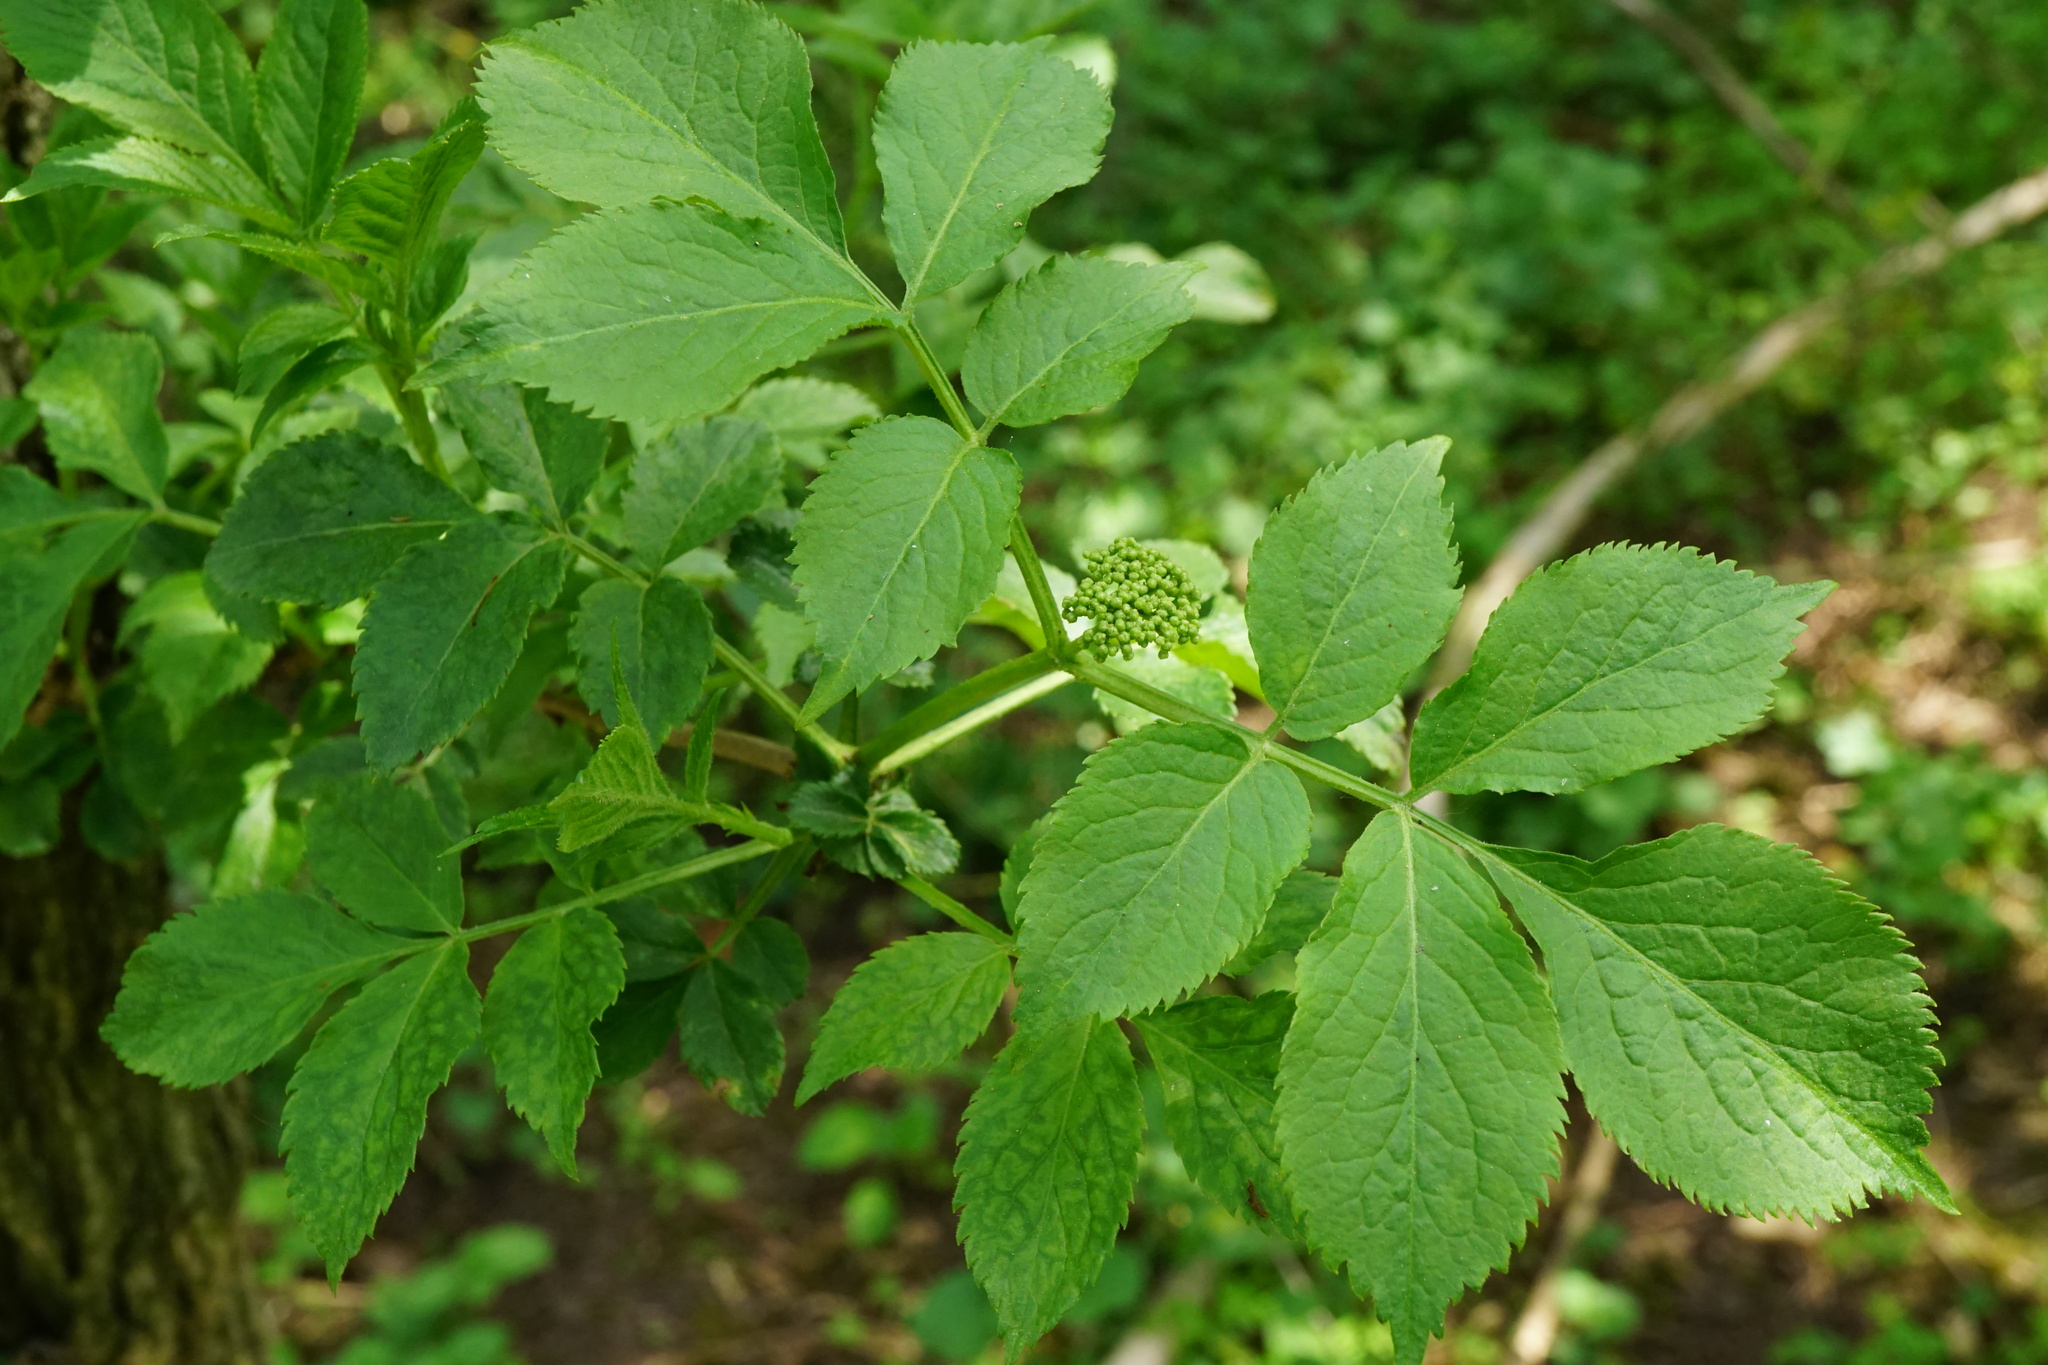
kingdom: Plantae
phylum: Tracheophyta
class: Magnoliopsida
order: Dipsacales
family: Viburnaceae
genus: Sambucus
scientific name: Sambucus nigra
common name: Elder
